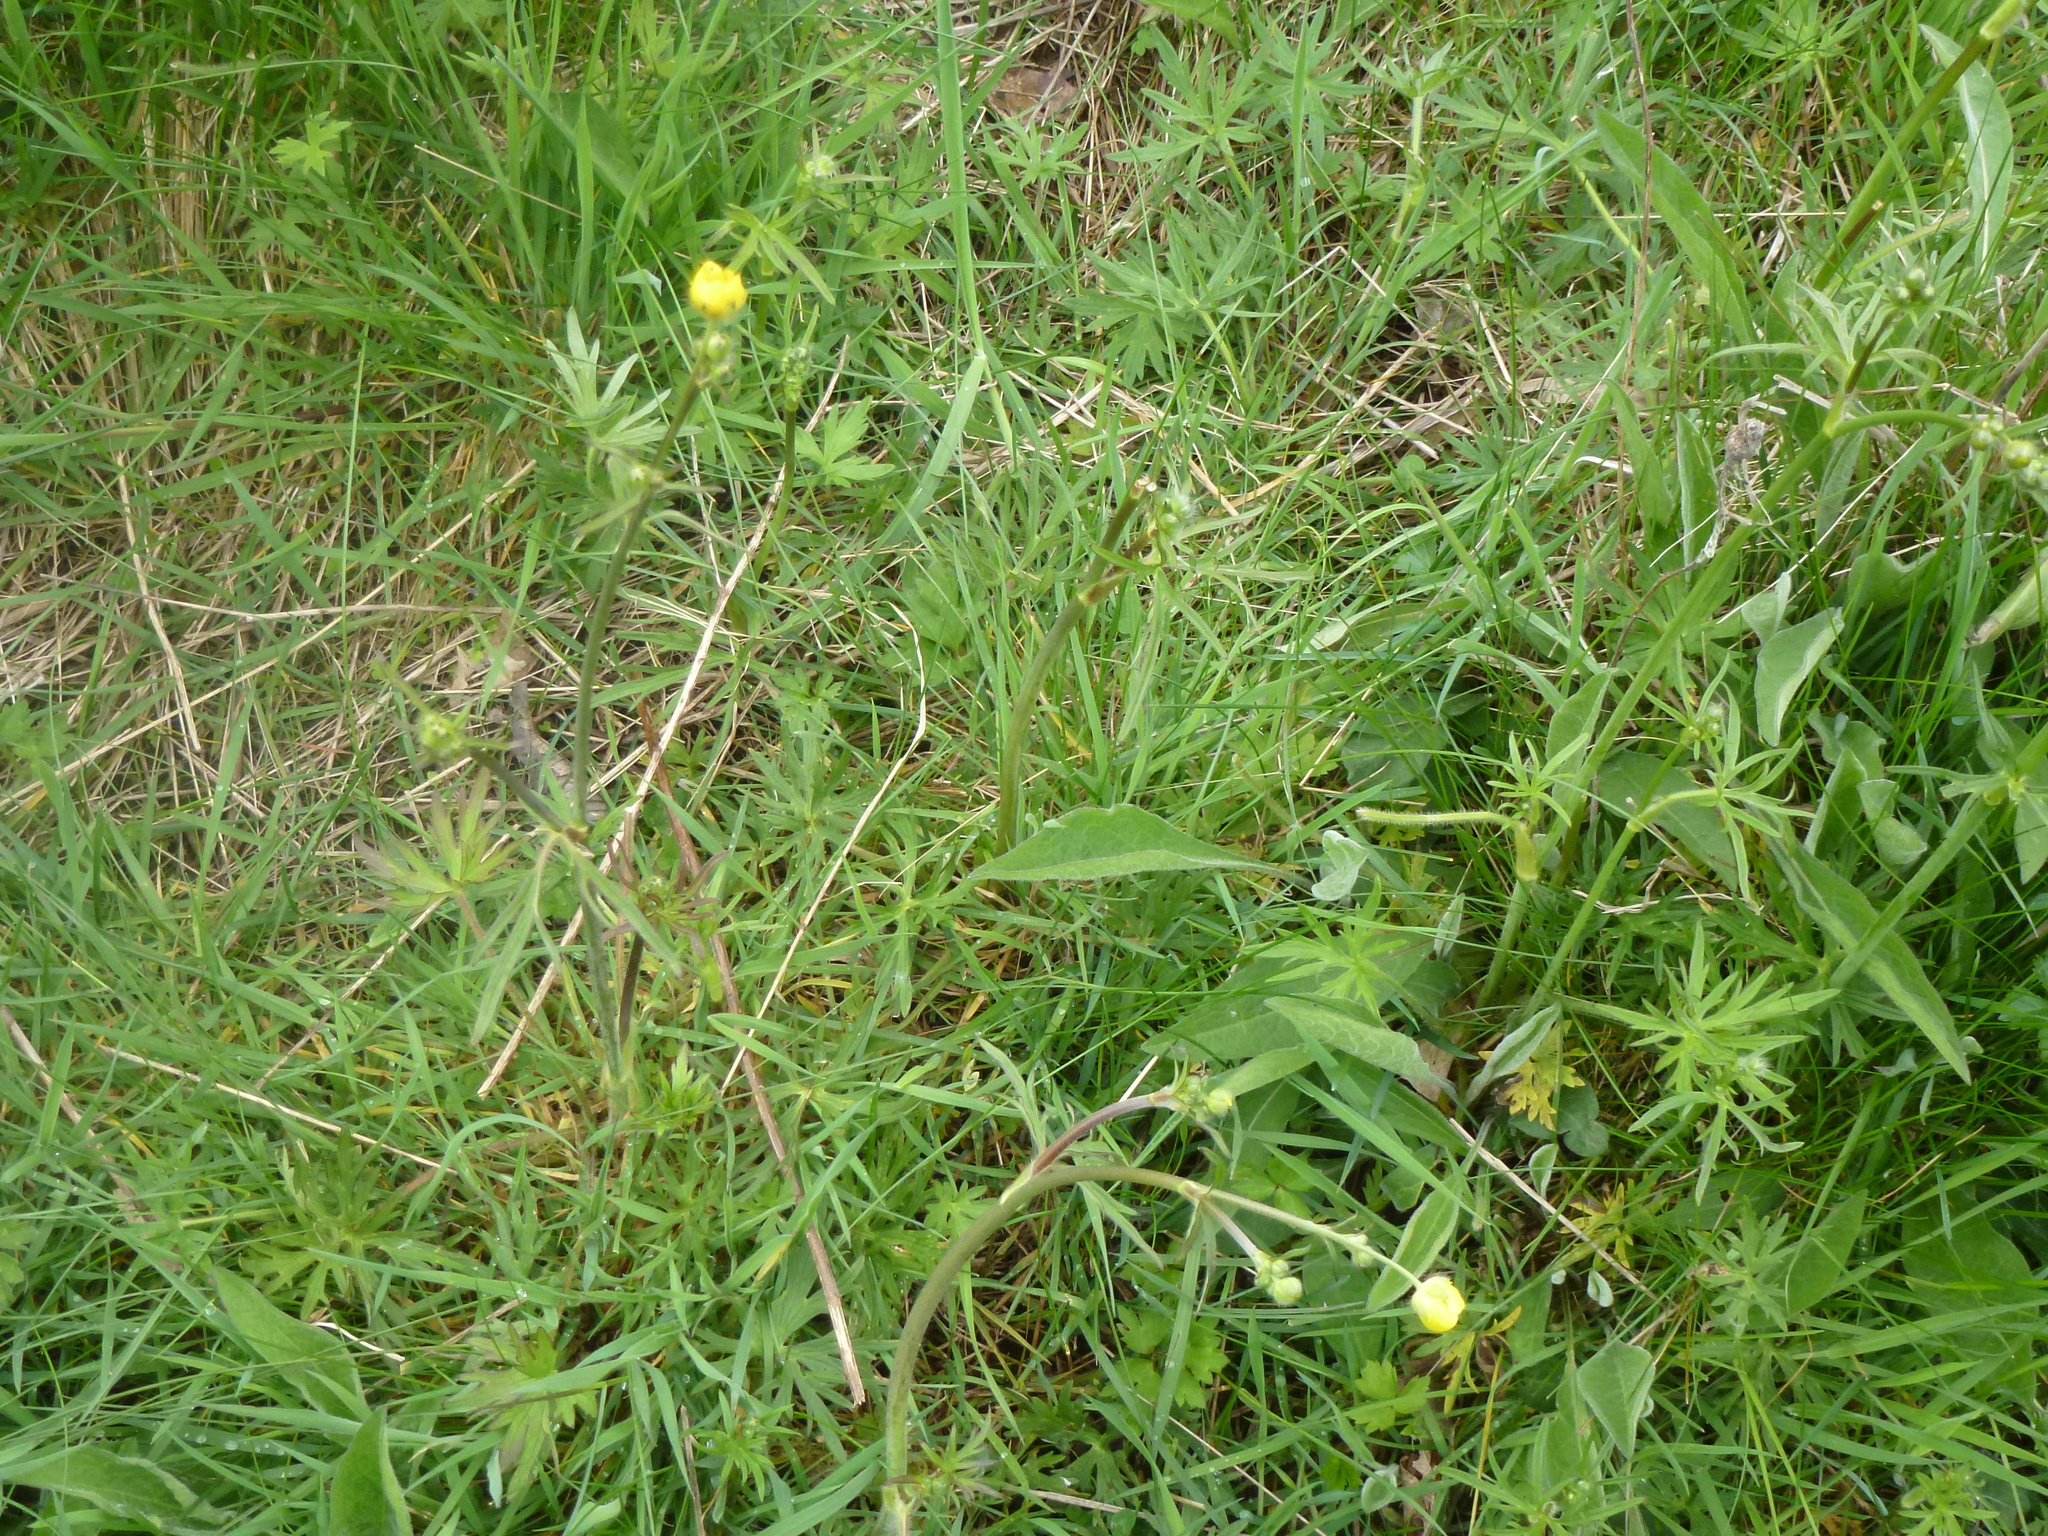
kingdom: Plantae
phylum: Tracheophyta
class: Magnoliopsida
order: Ranunculales
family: Ranunculaceae
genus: Ranunculus
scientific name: Ranunculus acris
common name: Meadow buttercup
